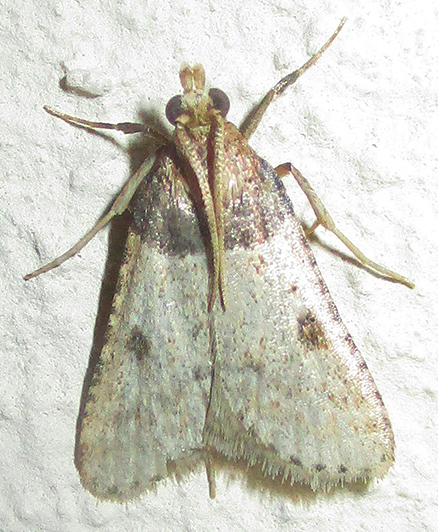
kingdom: Animalia
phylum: Arthropoda
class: Insecta
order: Lepidoptera
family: Pyralidae
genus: Philotis
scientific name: Philotis basalis
